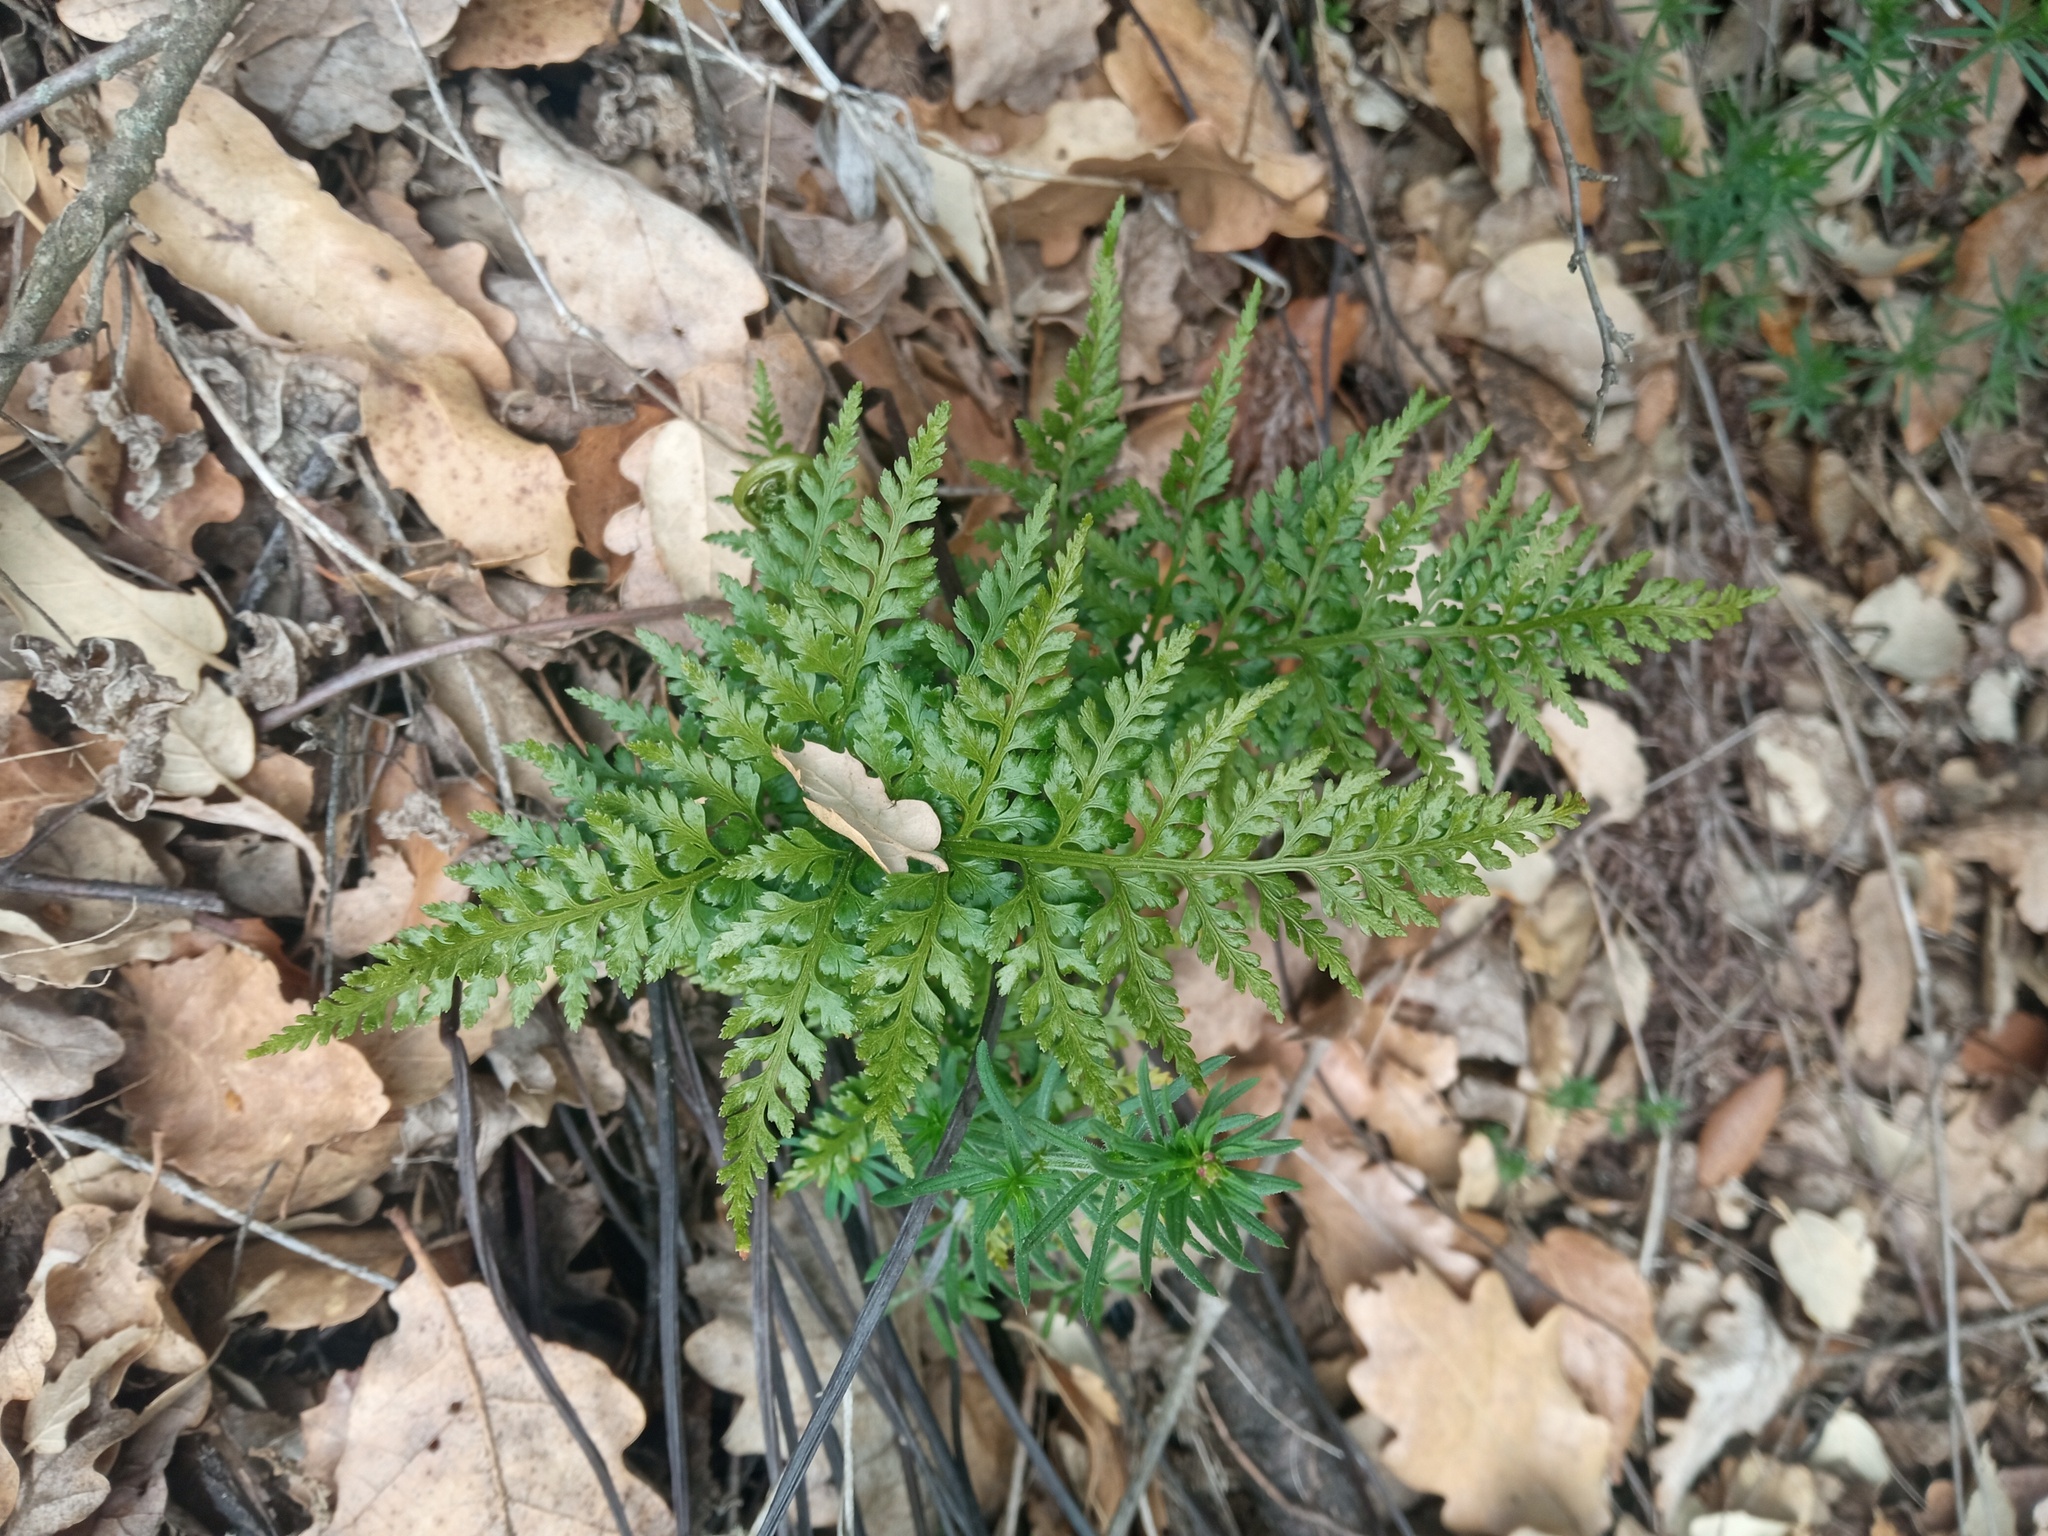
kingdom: Plantae
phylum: Tracheophyta
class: Polypodiopsida
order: Polypodiales
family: Aspleniaceae
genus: Asplenium
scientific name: Asplenium onopteris
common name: Irish spleenwort
